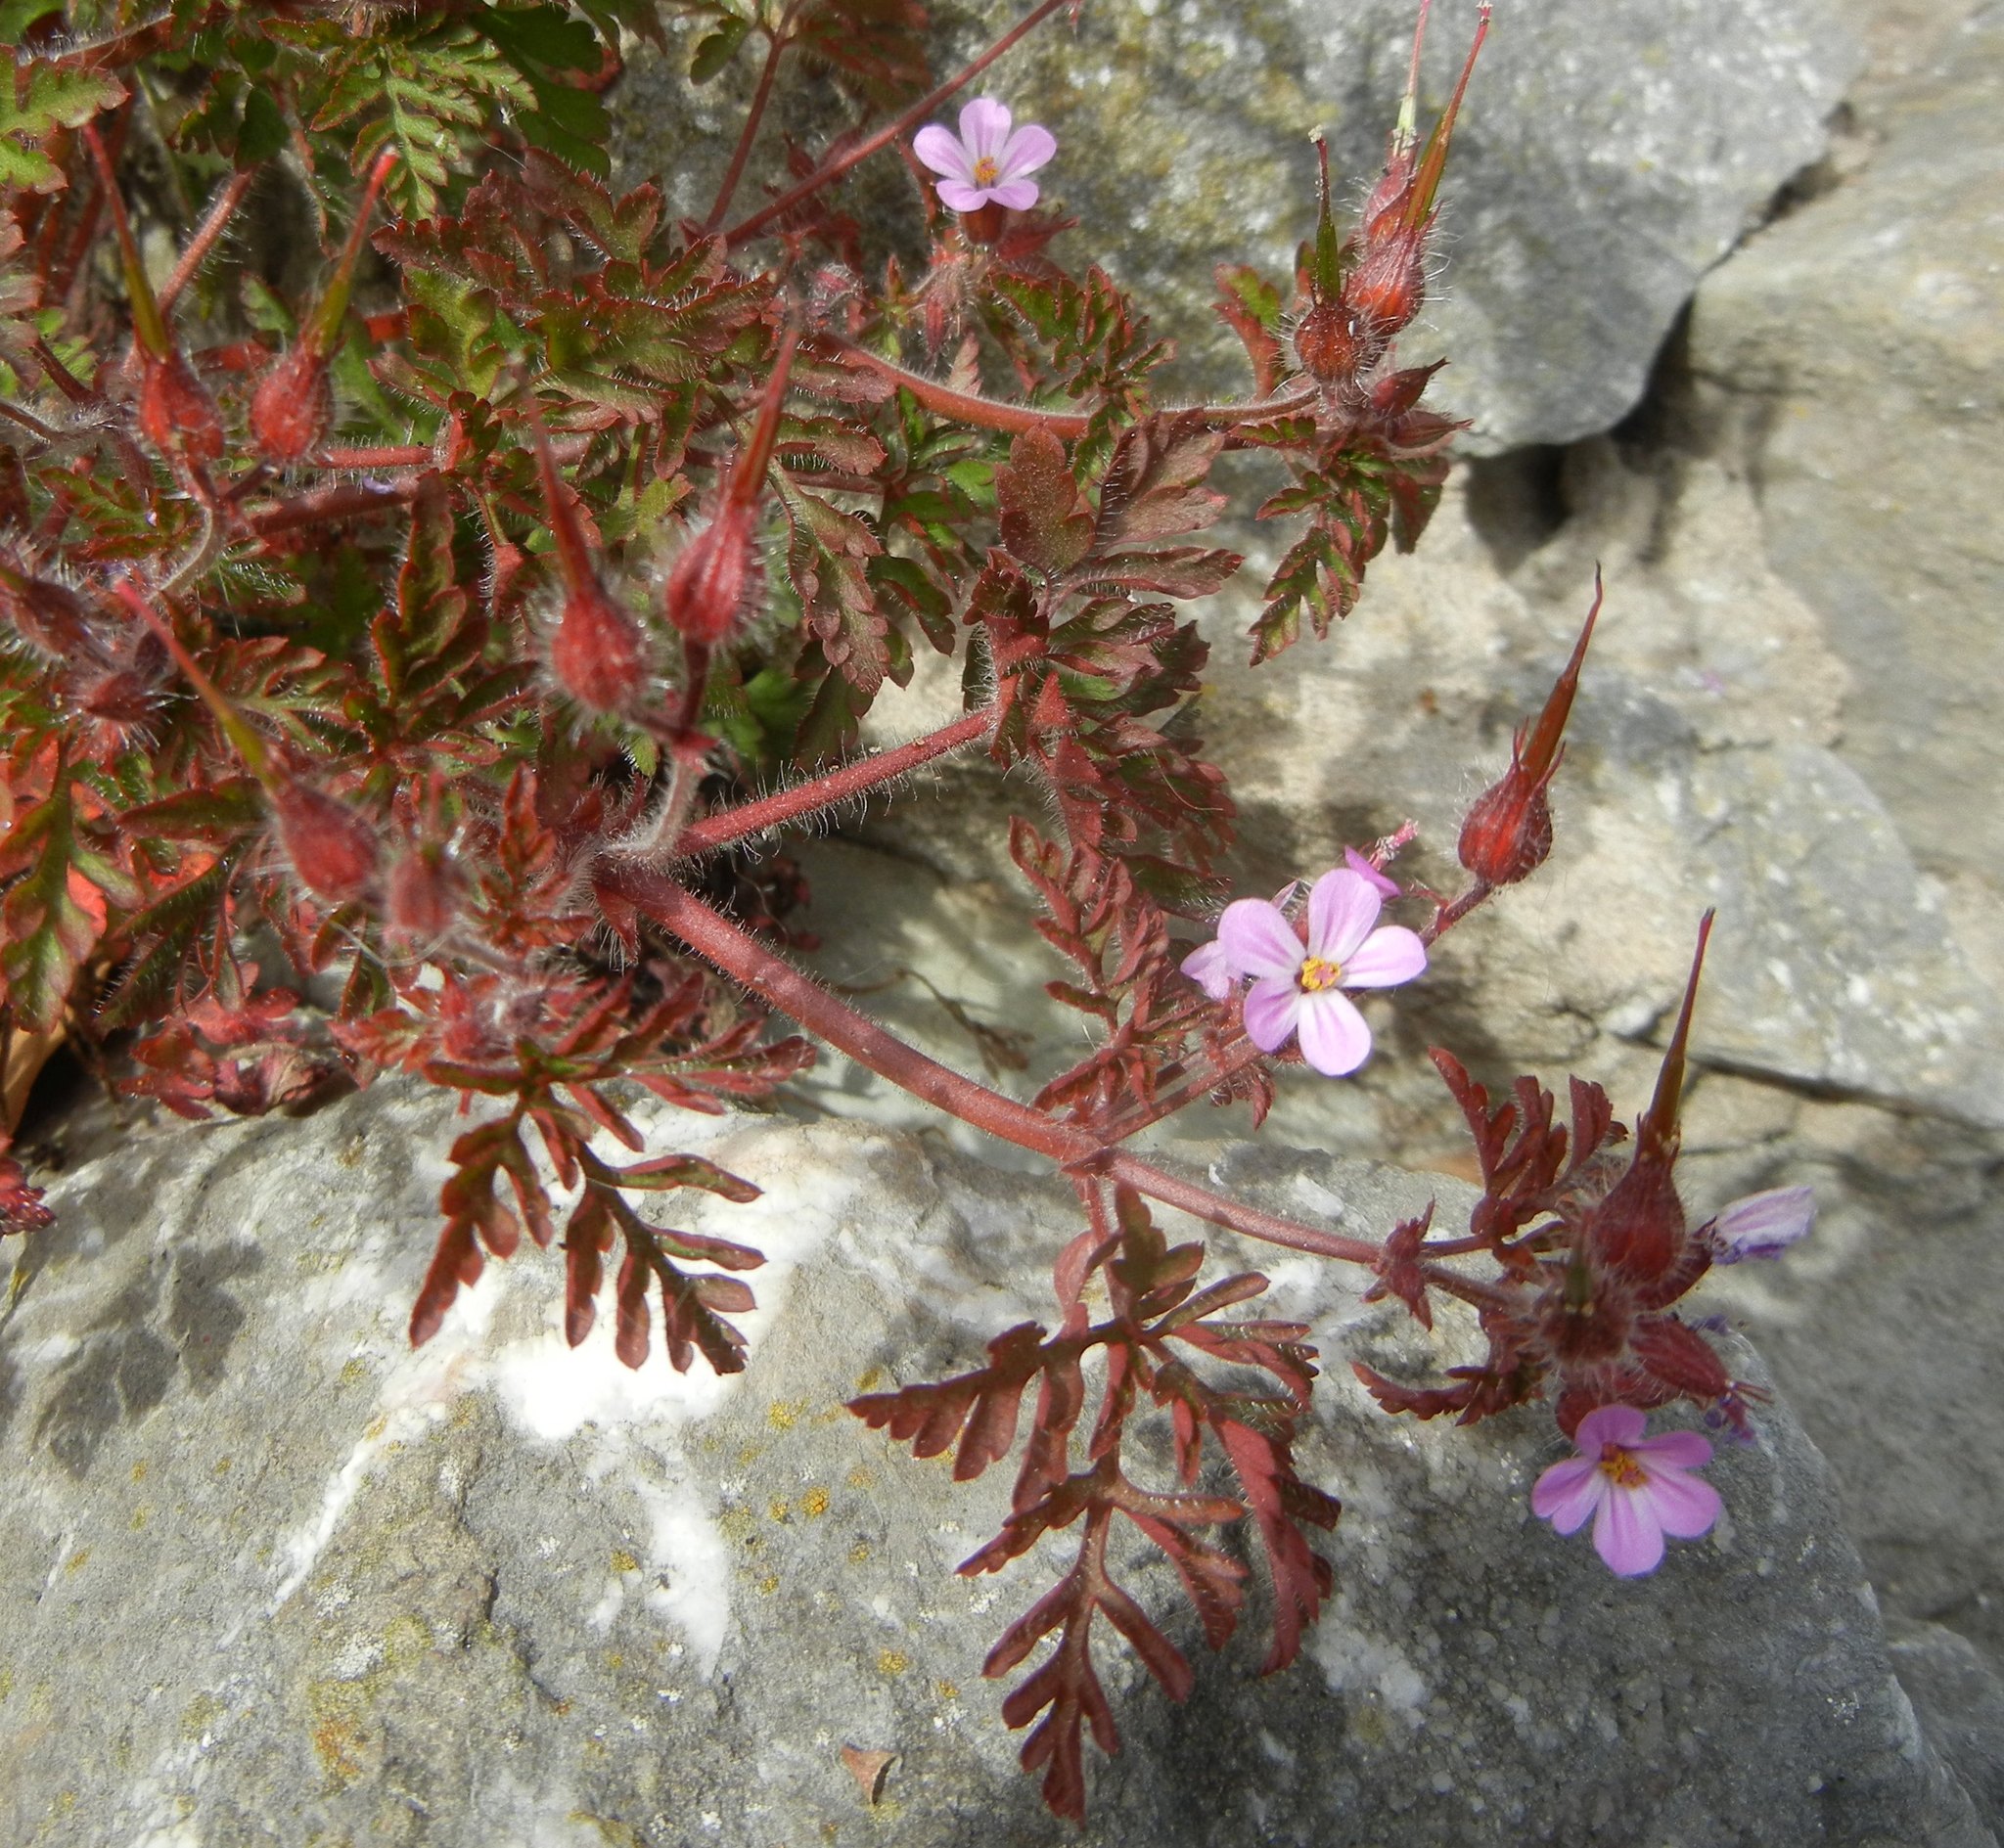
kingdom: Plantae
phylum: Tracheophyta
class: Magnoliopsida
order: Geraniales
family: Geraniaceae
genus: Geranium
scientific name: Geranium robertianum
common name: Herb-robert
